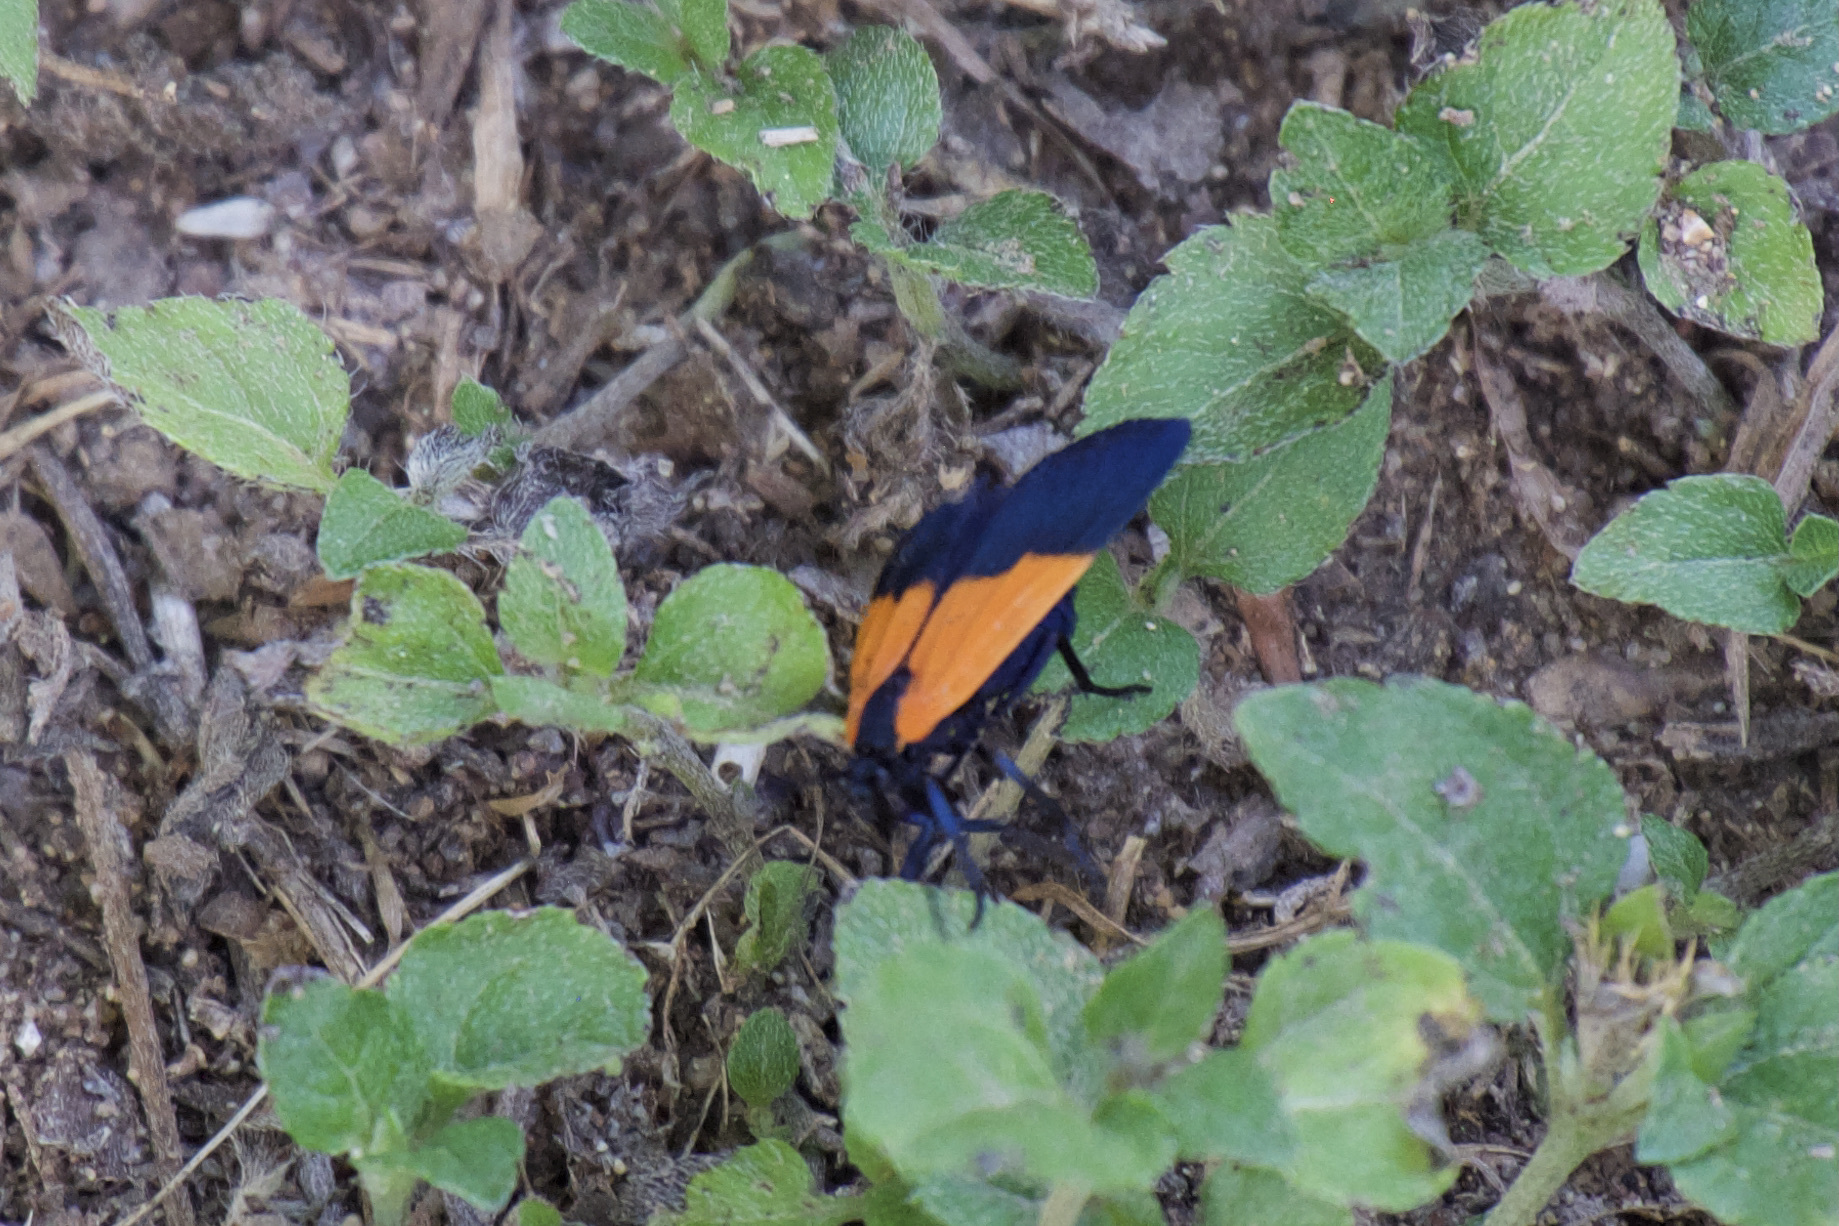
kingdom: Animalia
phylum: Arthropoda
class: Insecta
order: Lepidoptera
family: Erebidae
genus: Lycomorpha
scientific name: Lycomorpha pholus
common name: Black-and-yellow lichen moth
